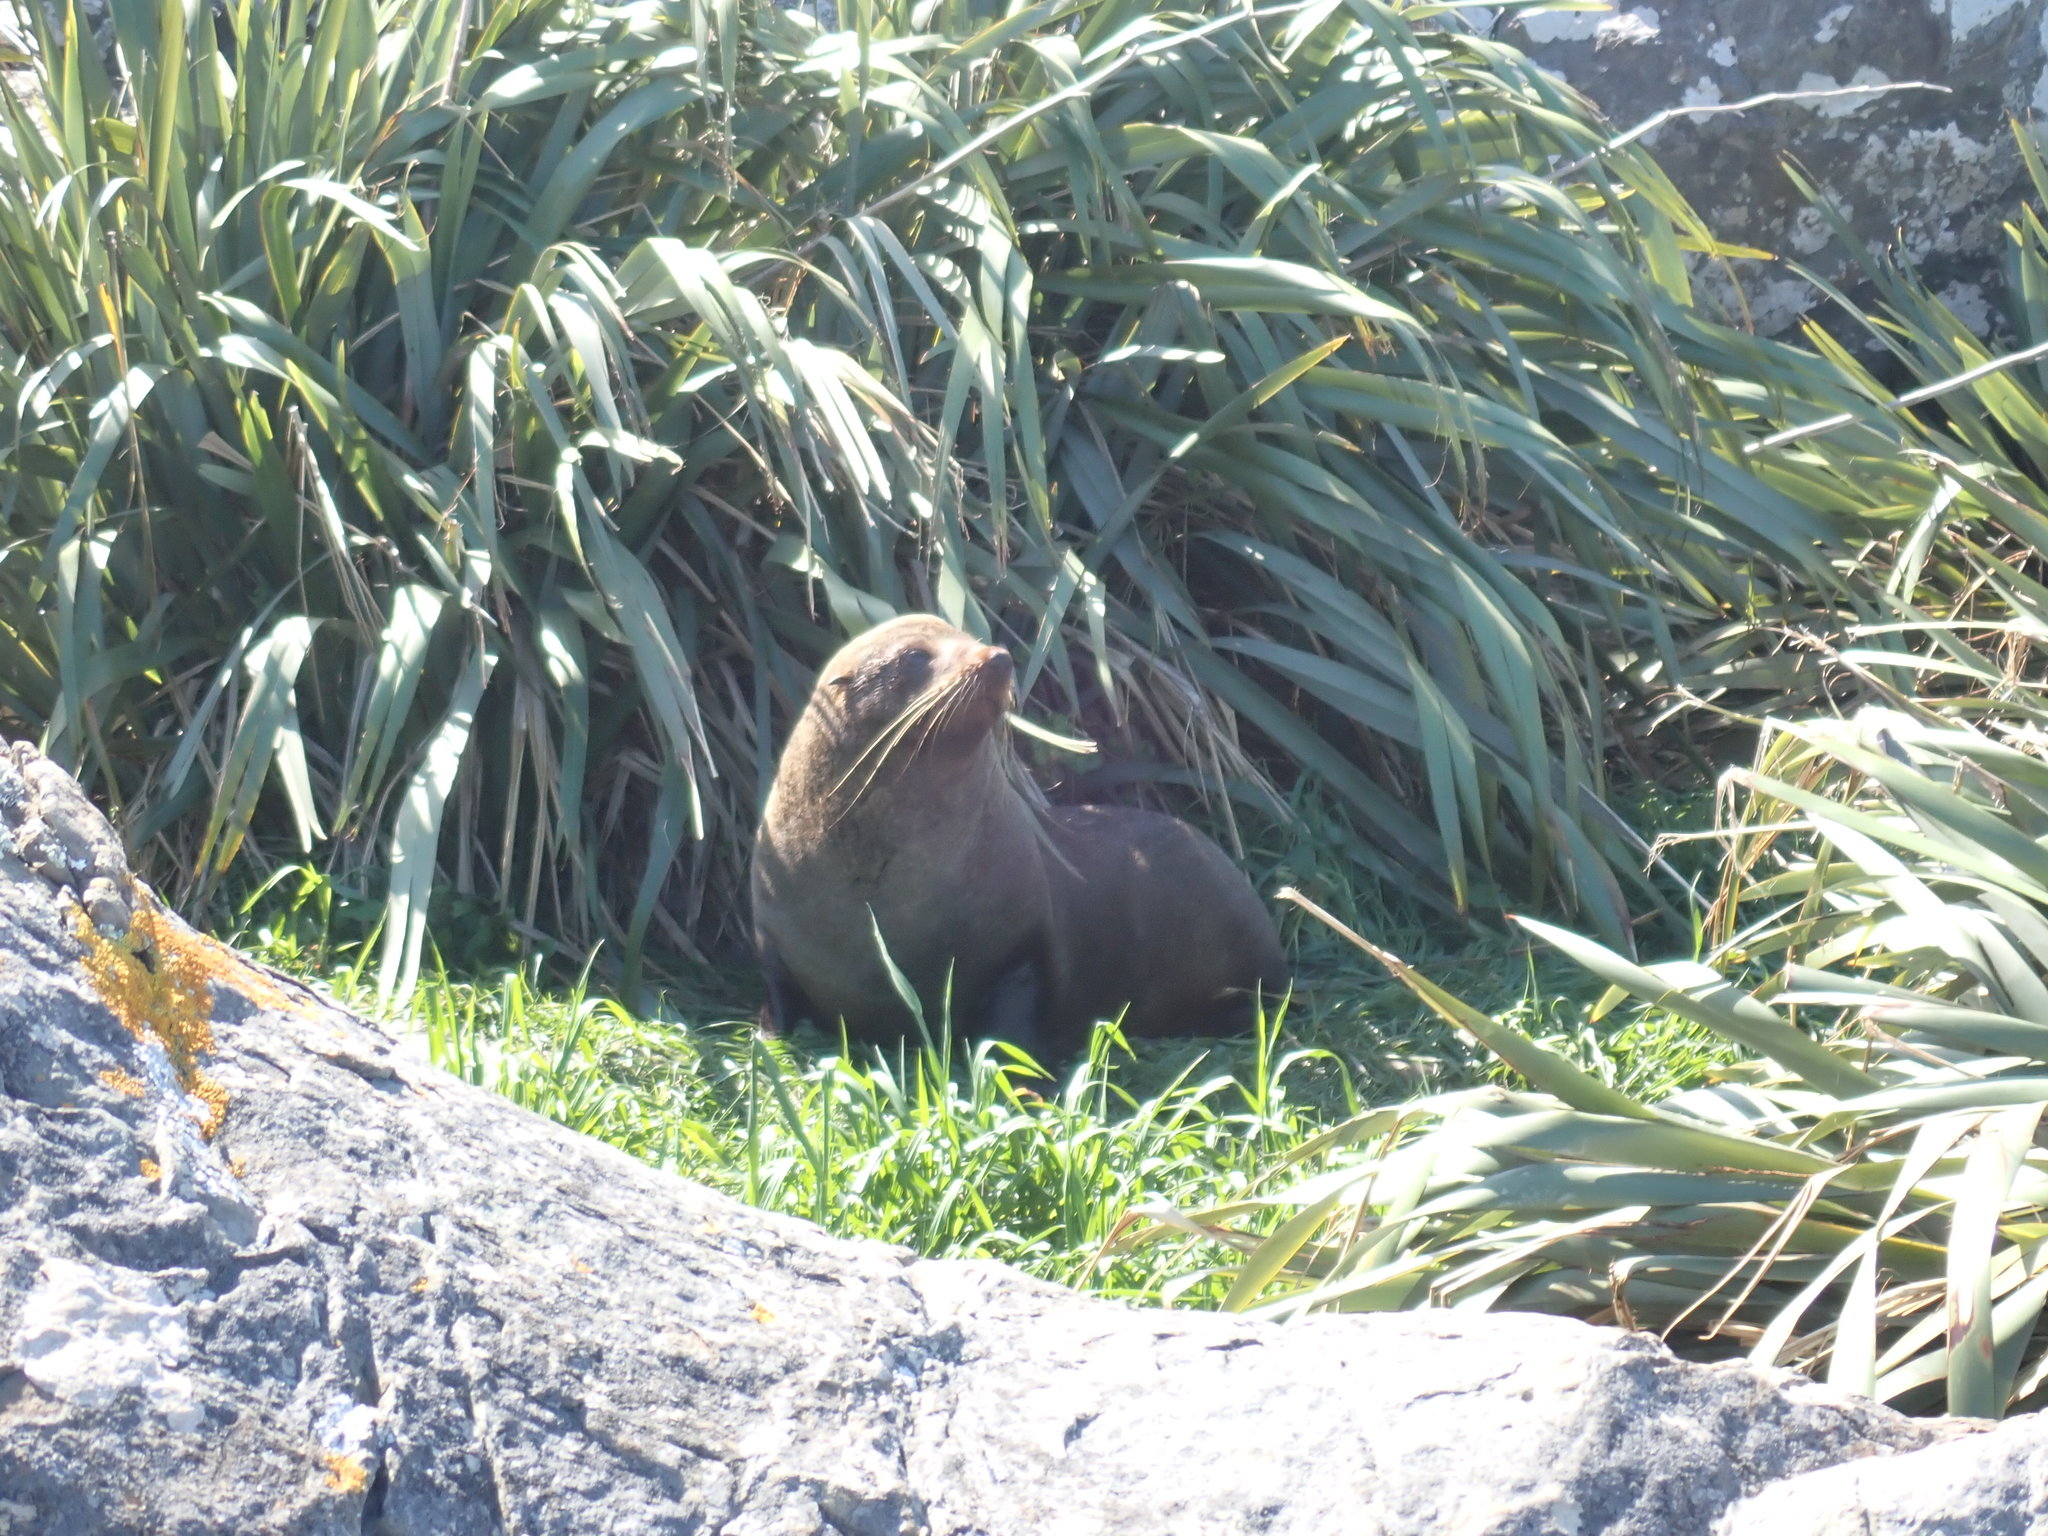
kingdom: Animalia
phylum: Chordata
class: Mammalia
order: Carnivora
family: Otariidae
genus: Arctocephalus
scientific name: Arctocephalus forsteri
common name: New zealand fur seal
